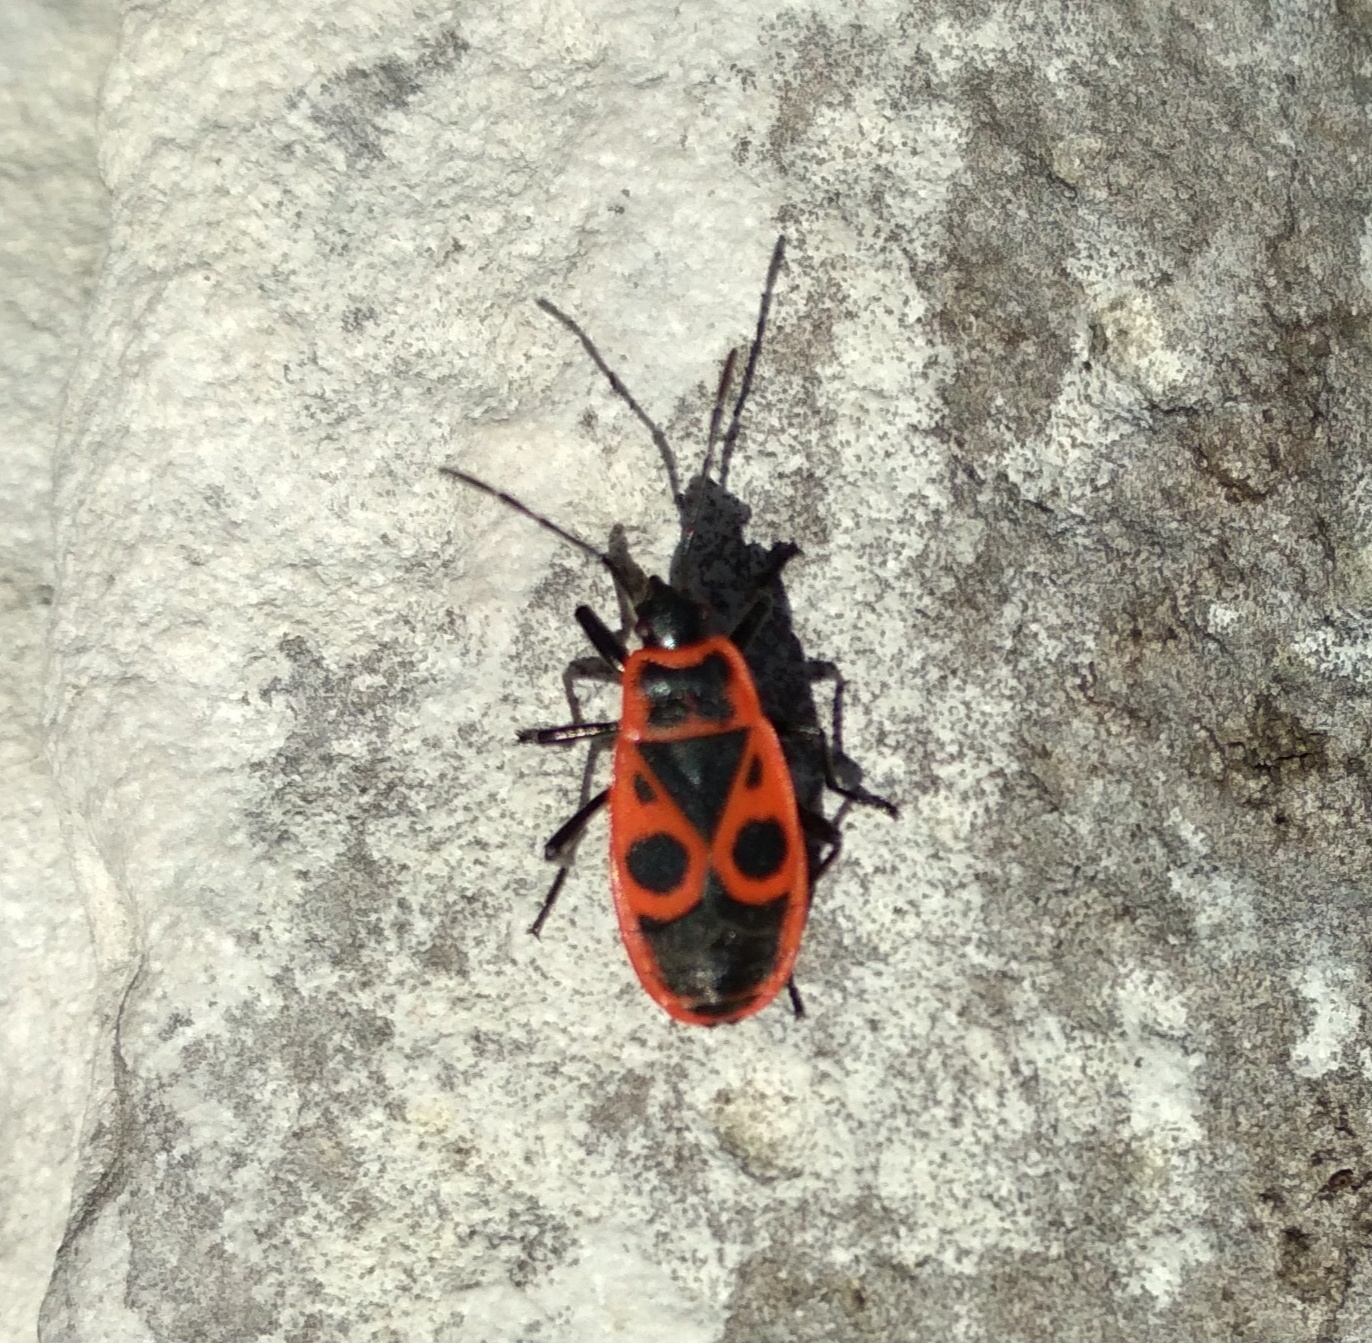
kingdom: Animalia
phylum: Arthropoda
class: Insecta
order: Hemiptera
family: Pyrrhocoridae
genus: Pyrrhocoris
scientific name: Pyrrhocoris apterus
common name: Firebug
